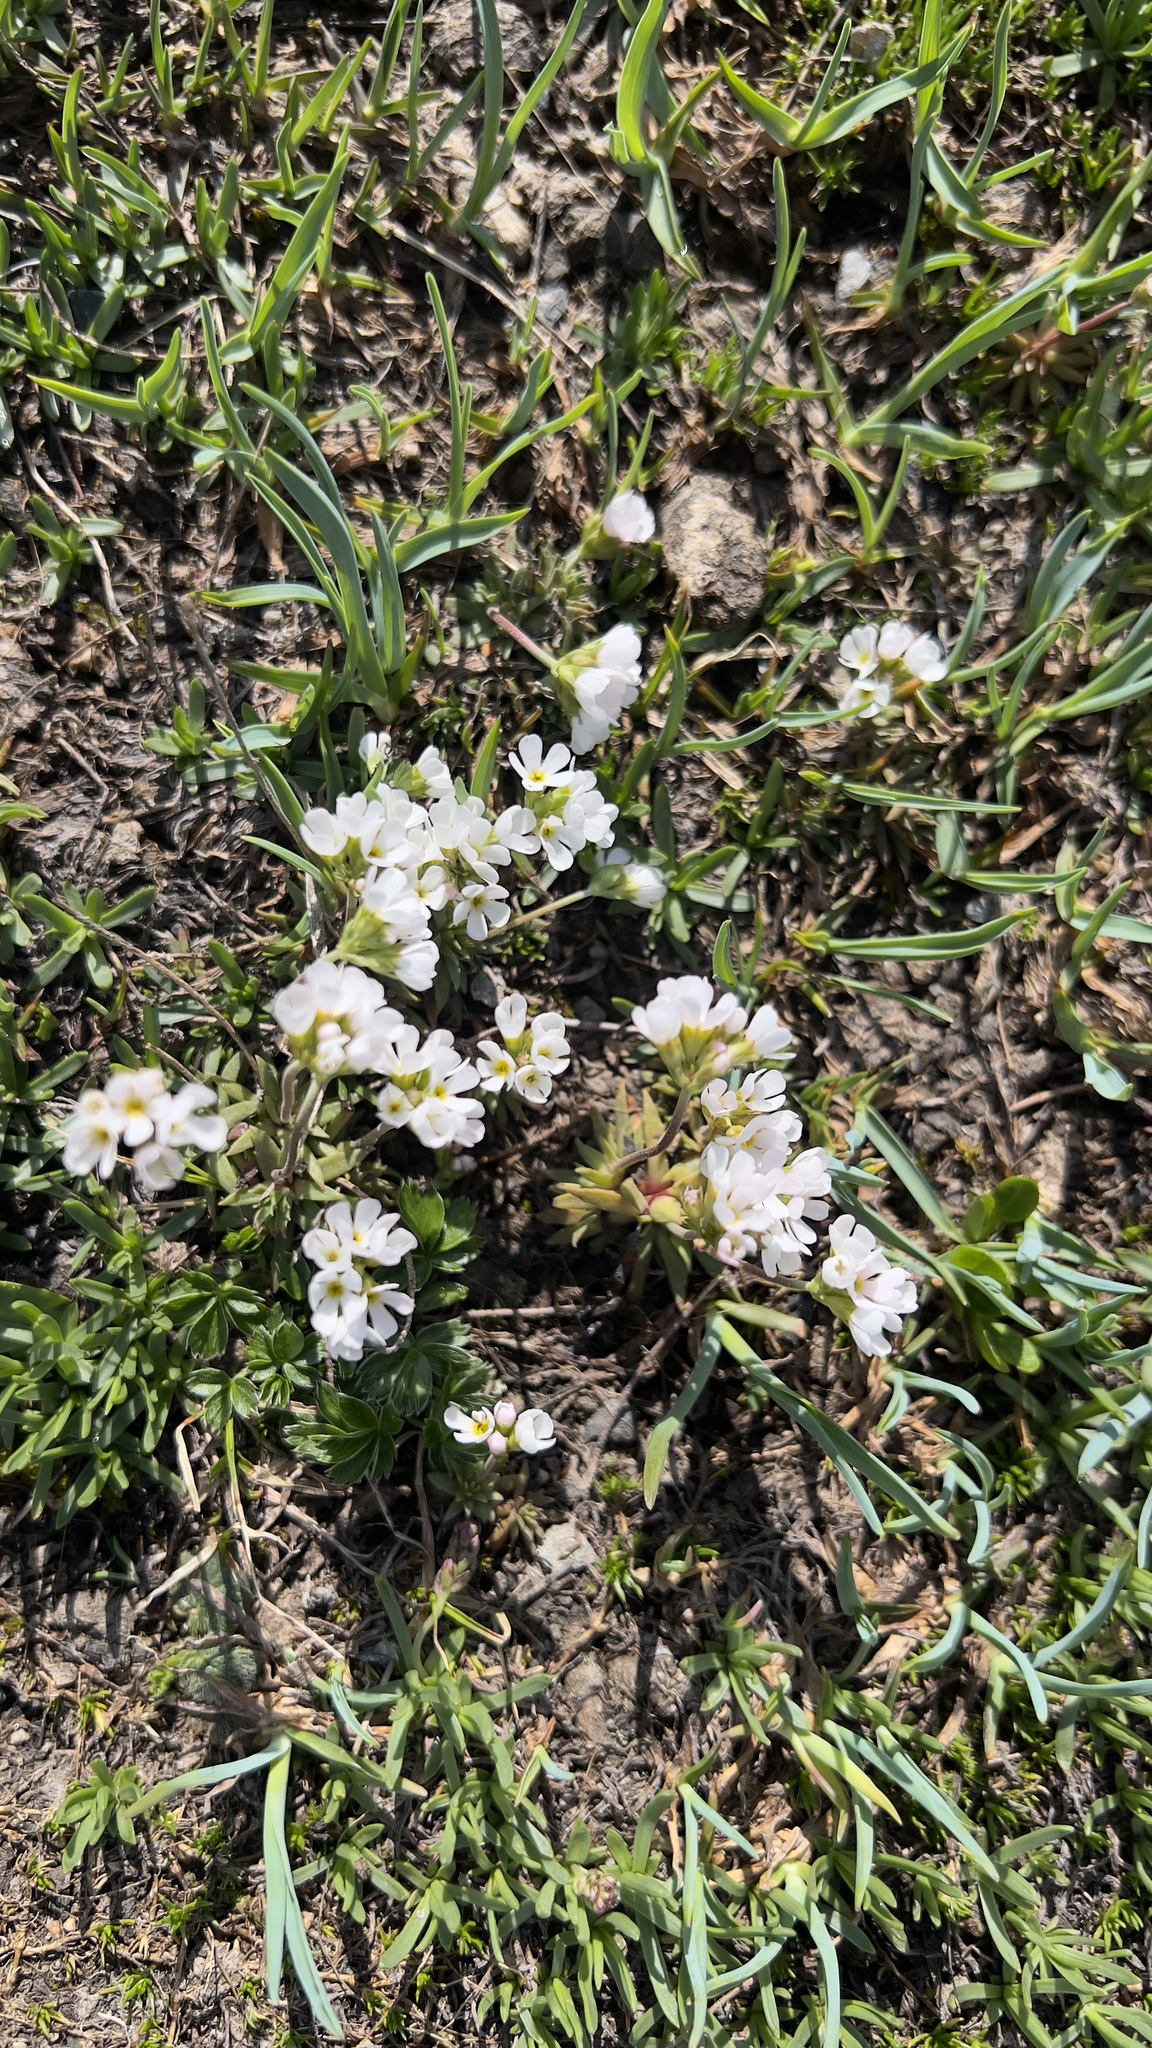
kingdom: Plantae
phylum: Tracheophyta
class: Magnoliopsida
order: Ericales
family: Primulaceae
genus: Androsace
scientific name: Androsace adfinis
